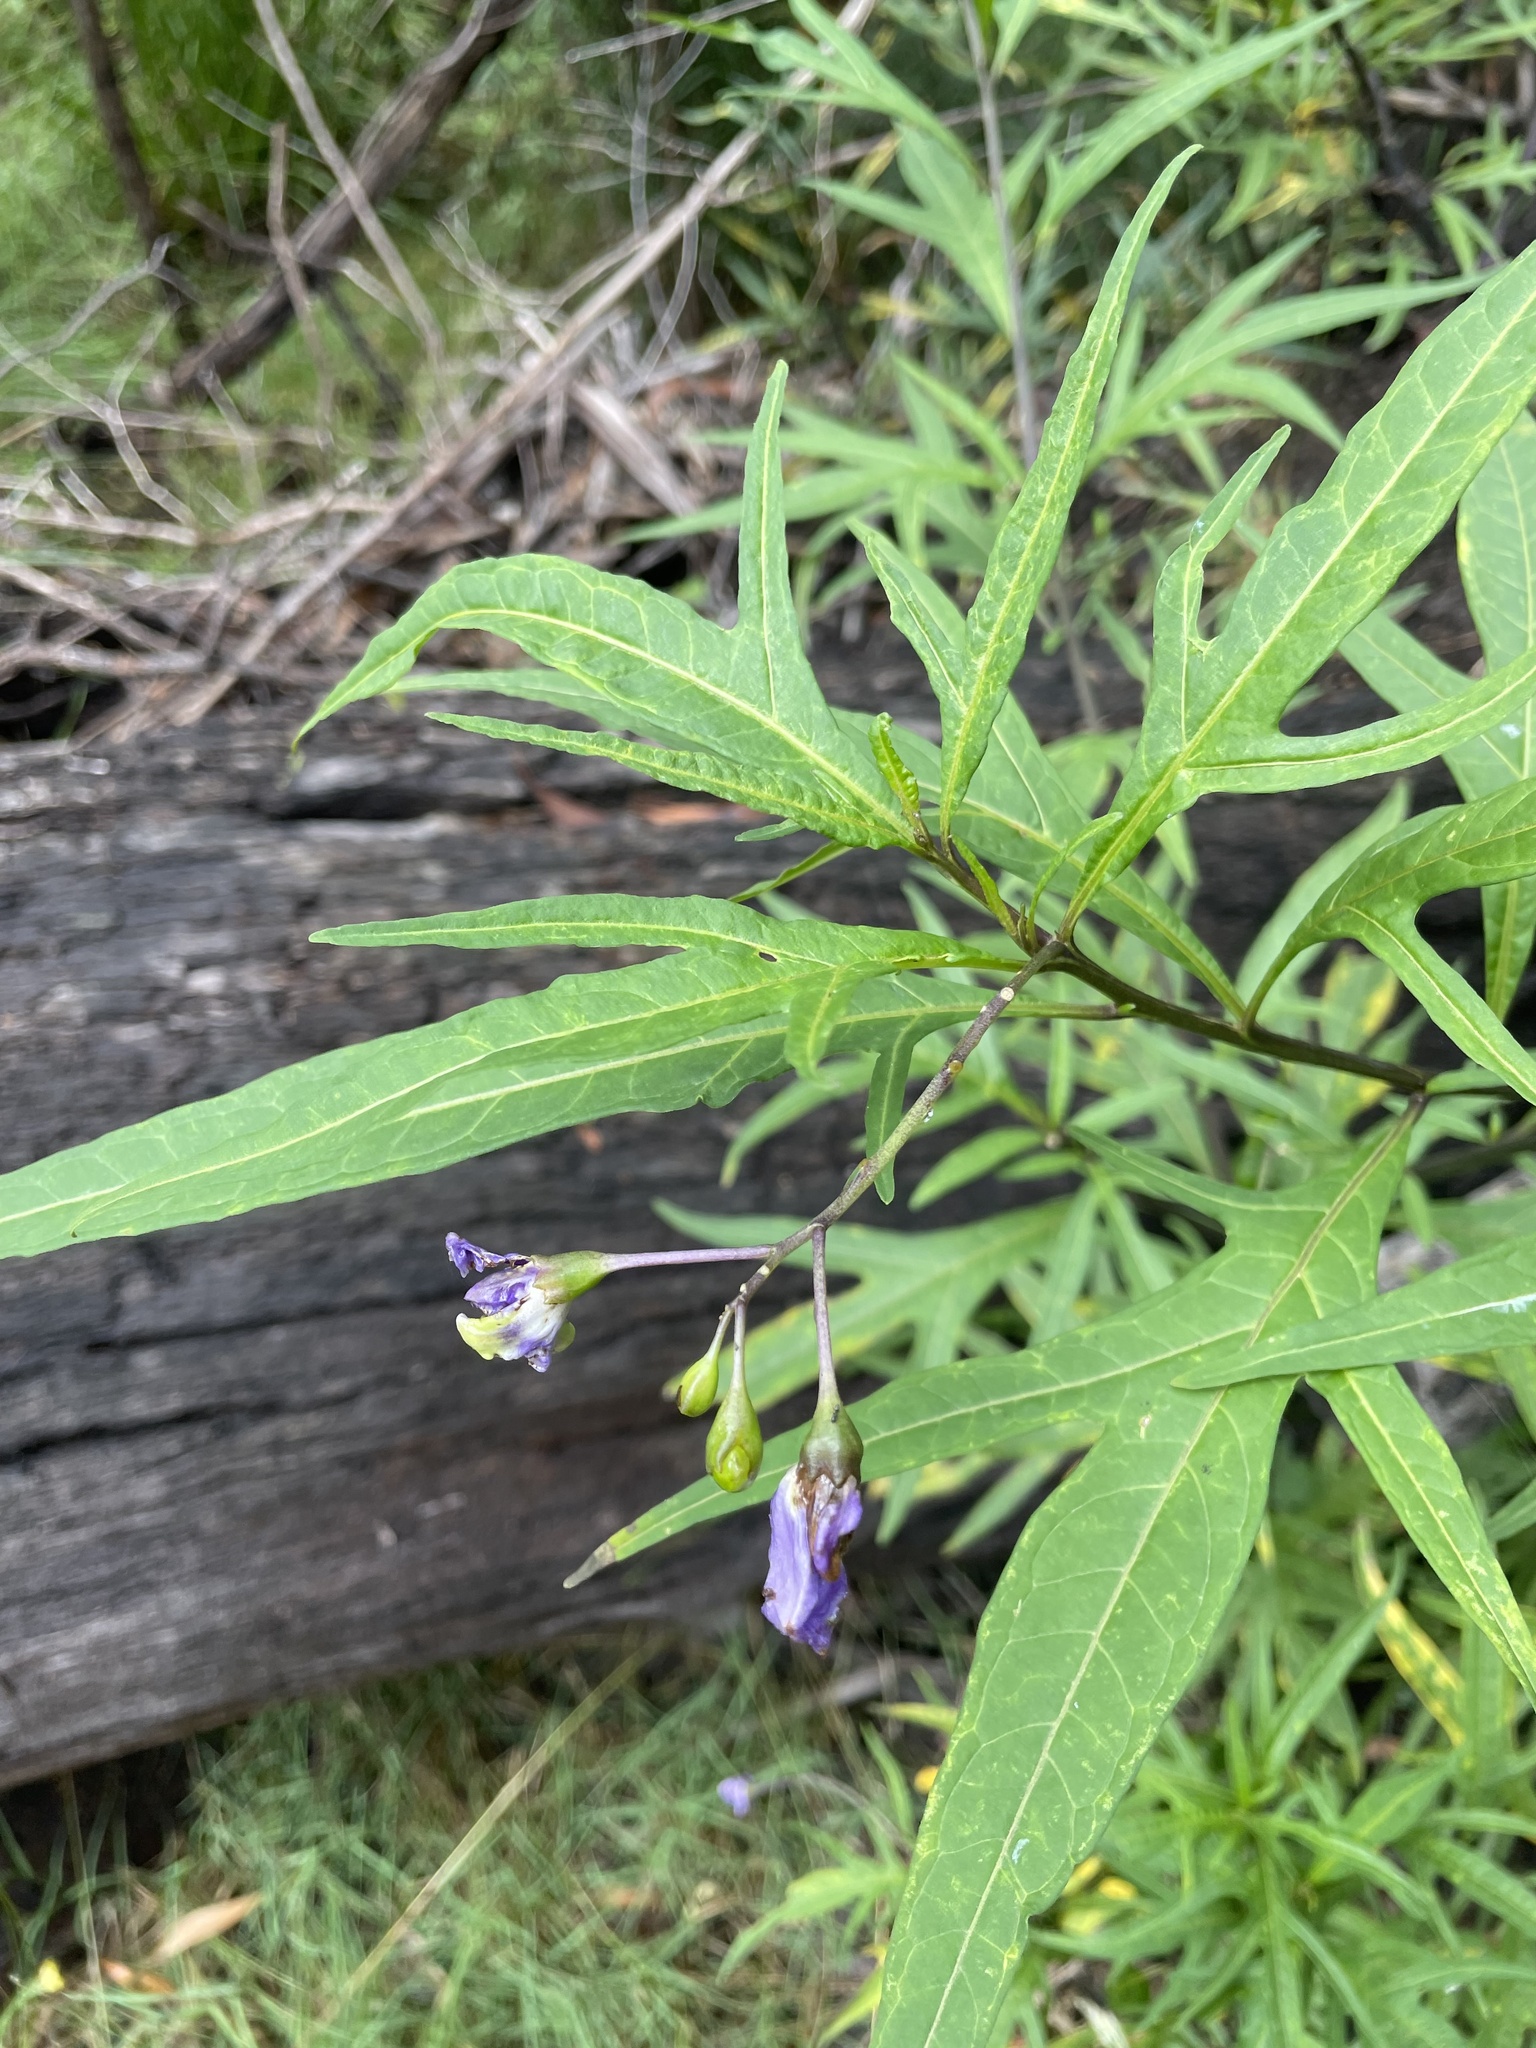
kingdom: Plantae
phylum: Tracheophyta
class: Magnoliopsida
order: Solanales
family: Solanaceae
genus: Solanum
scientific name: Solanum laciniatum
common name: Kangaroo-apple
